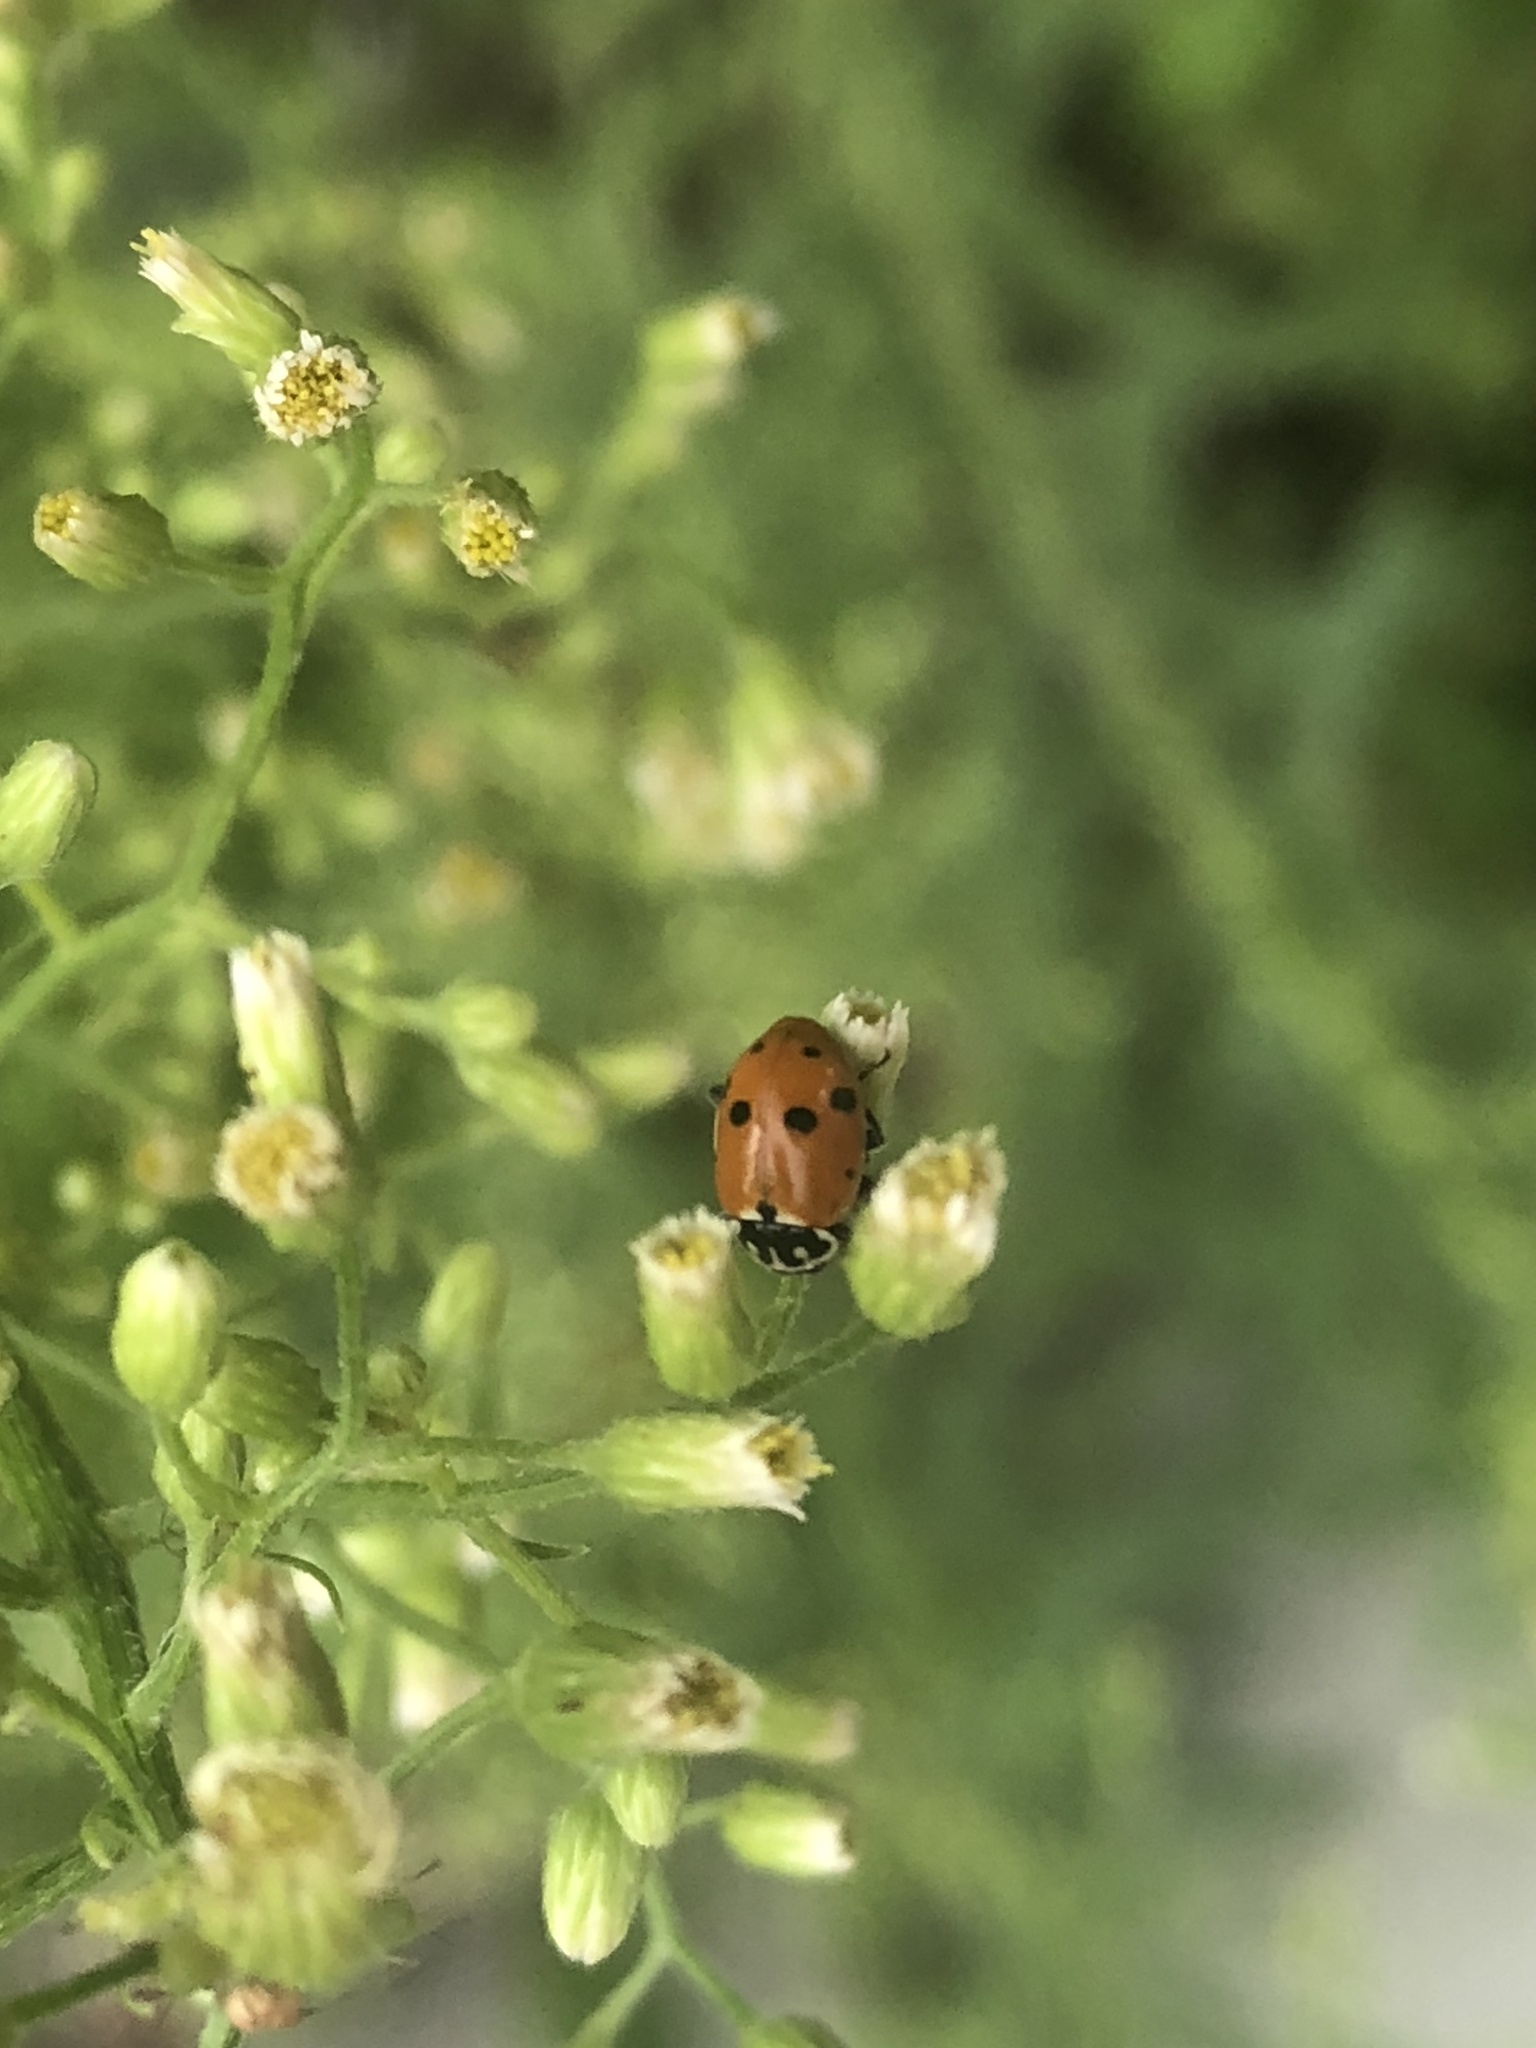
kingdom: Animalia
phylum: Arthropoda
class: Insecta
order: Coleoptera
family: Coccinellidae
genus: Hippodamia
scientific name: Hippodamia variegata
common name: Ladybird beetle
